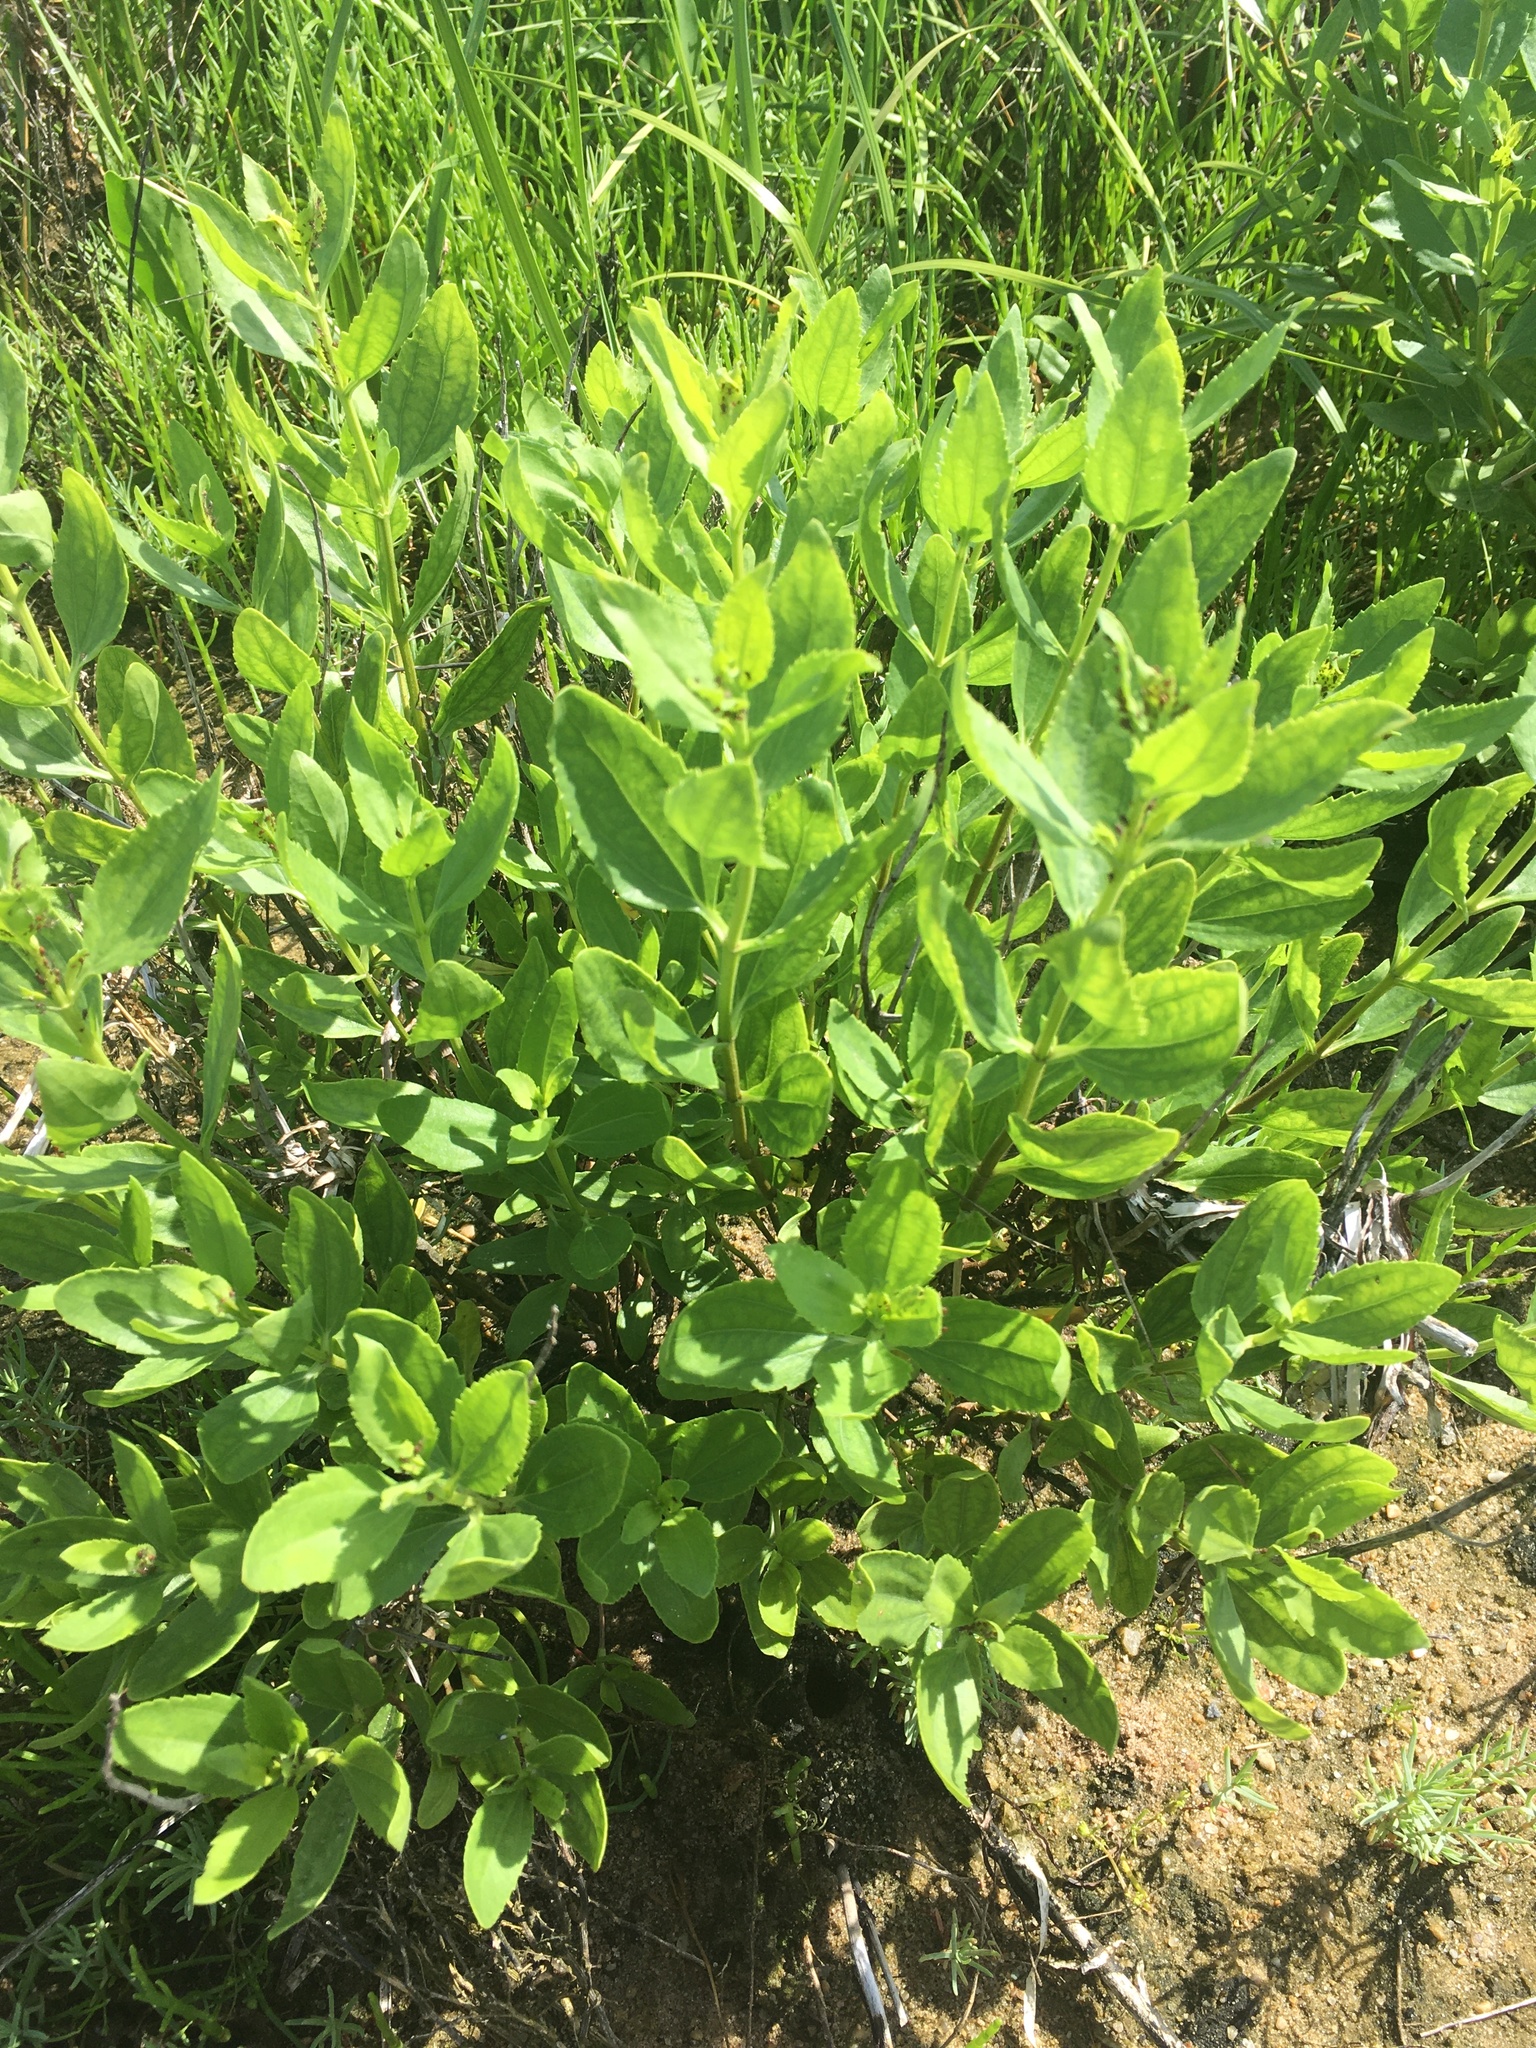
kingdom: Plantae
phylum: Tracheophyta
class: Magnoliopsida
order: Asterales
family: Asteraceae
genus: Iva
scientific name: Iva frutescens
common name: Big-leaved marsh-elder
